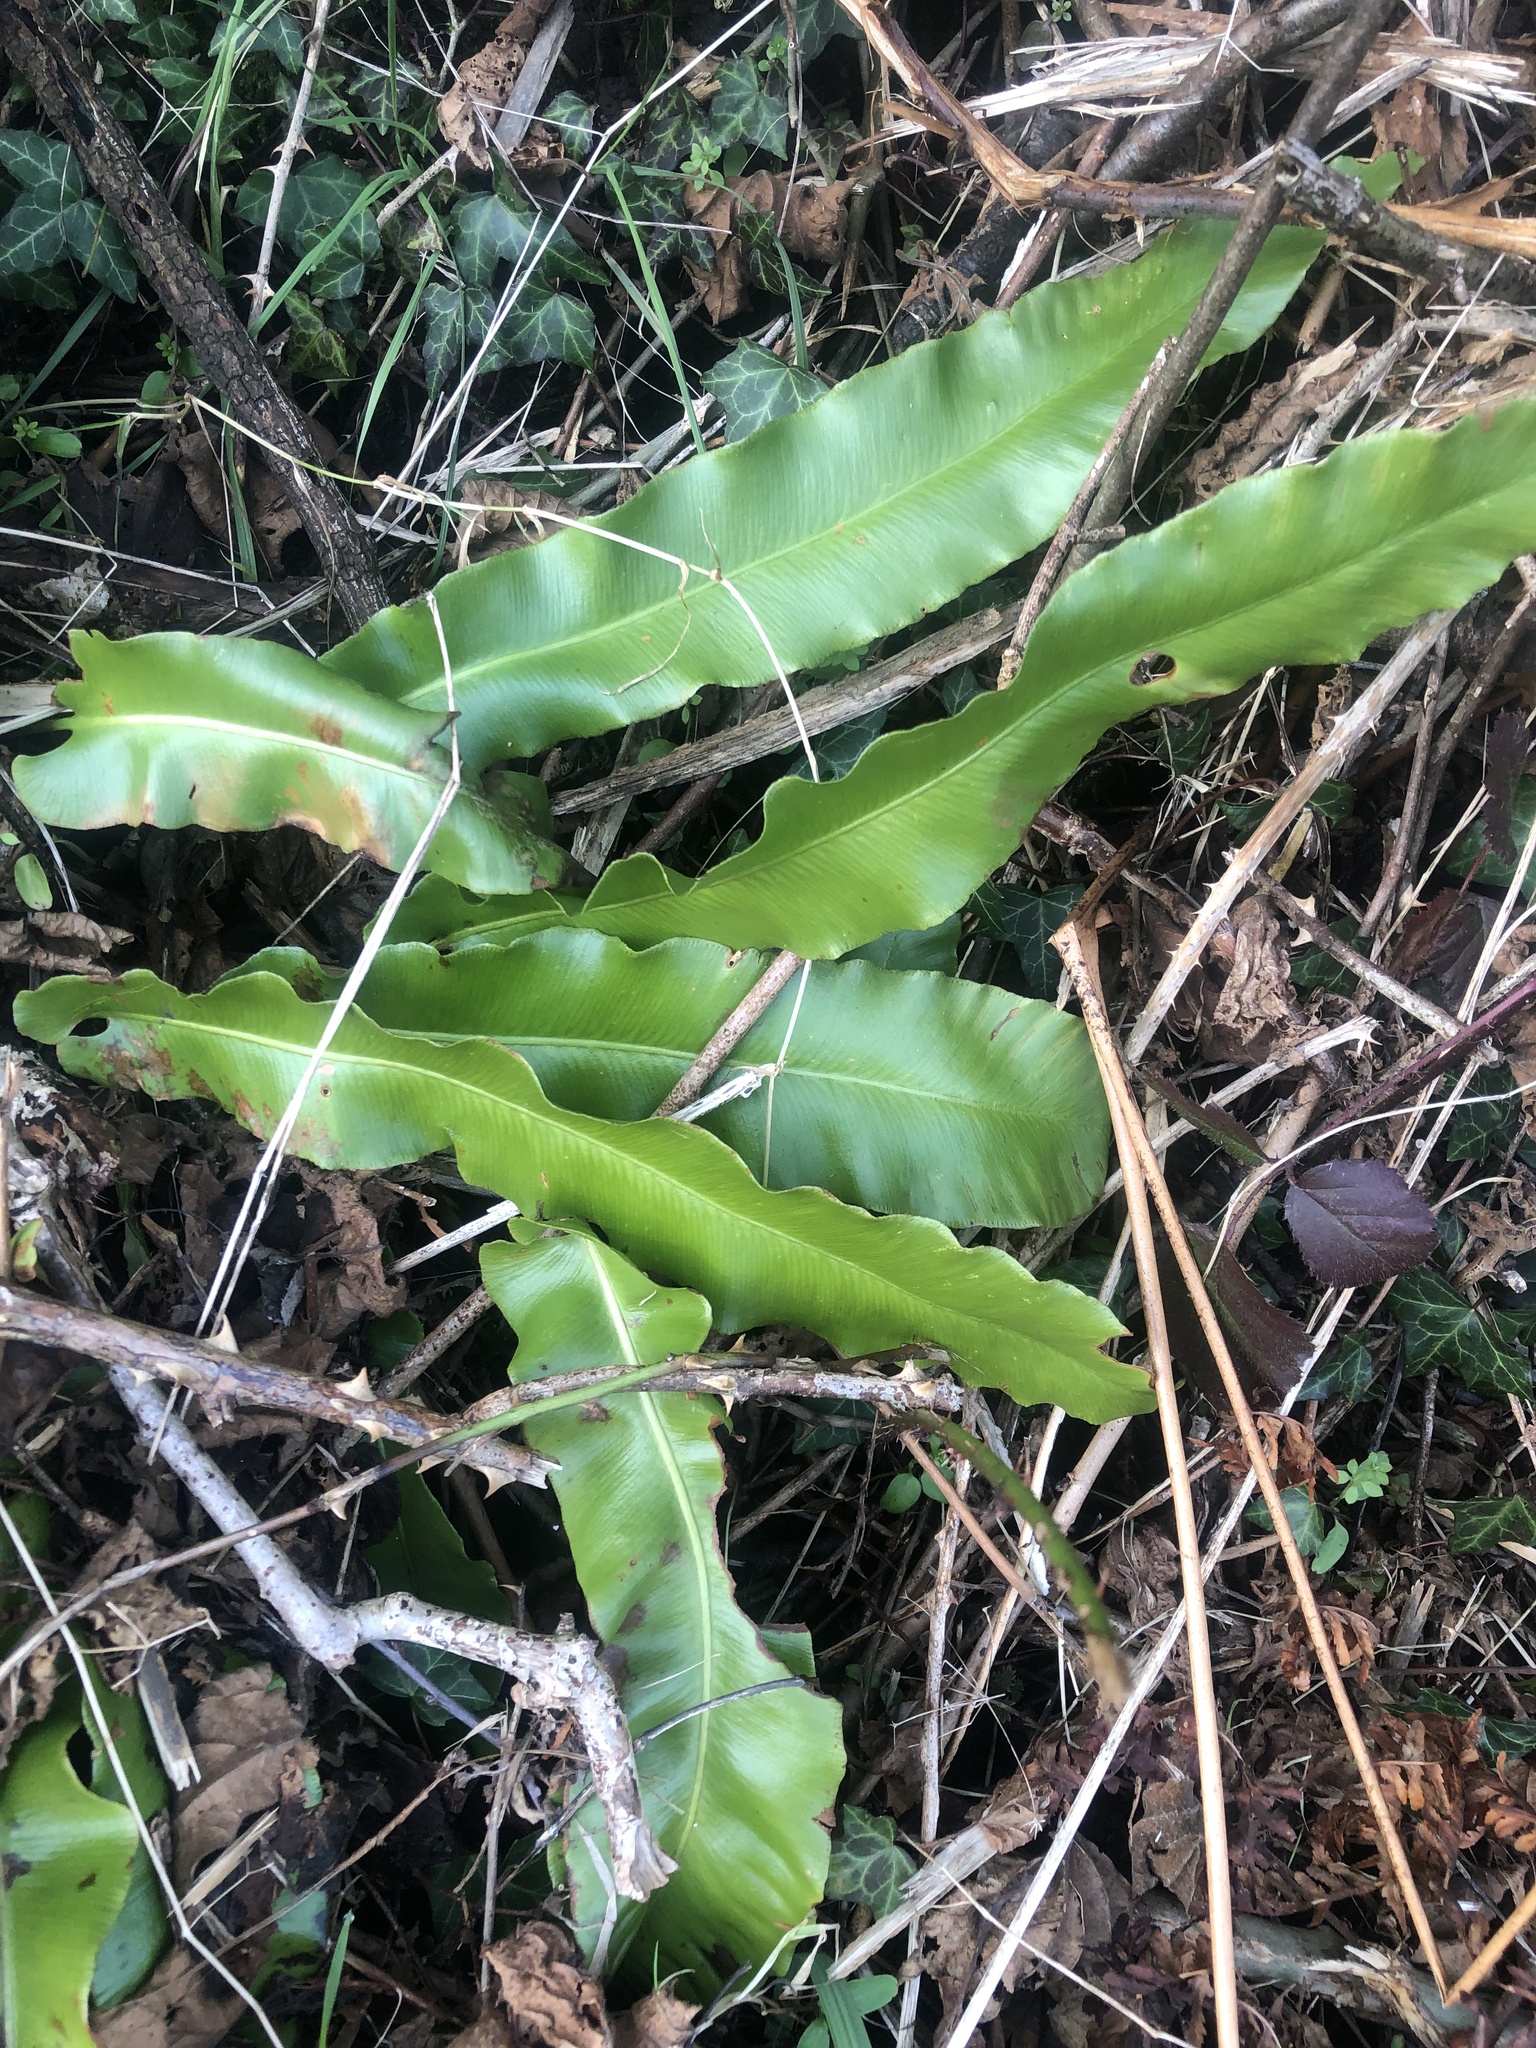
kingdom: Plantae
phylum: Tracheophyta
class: Polypodiopsida
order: Polypodiales
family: Aspleniaceae
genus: Asplenium
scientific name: Asplenium scolopendrium
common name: Hart's-tongue fern
